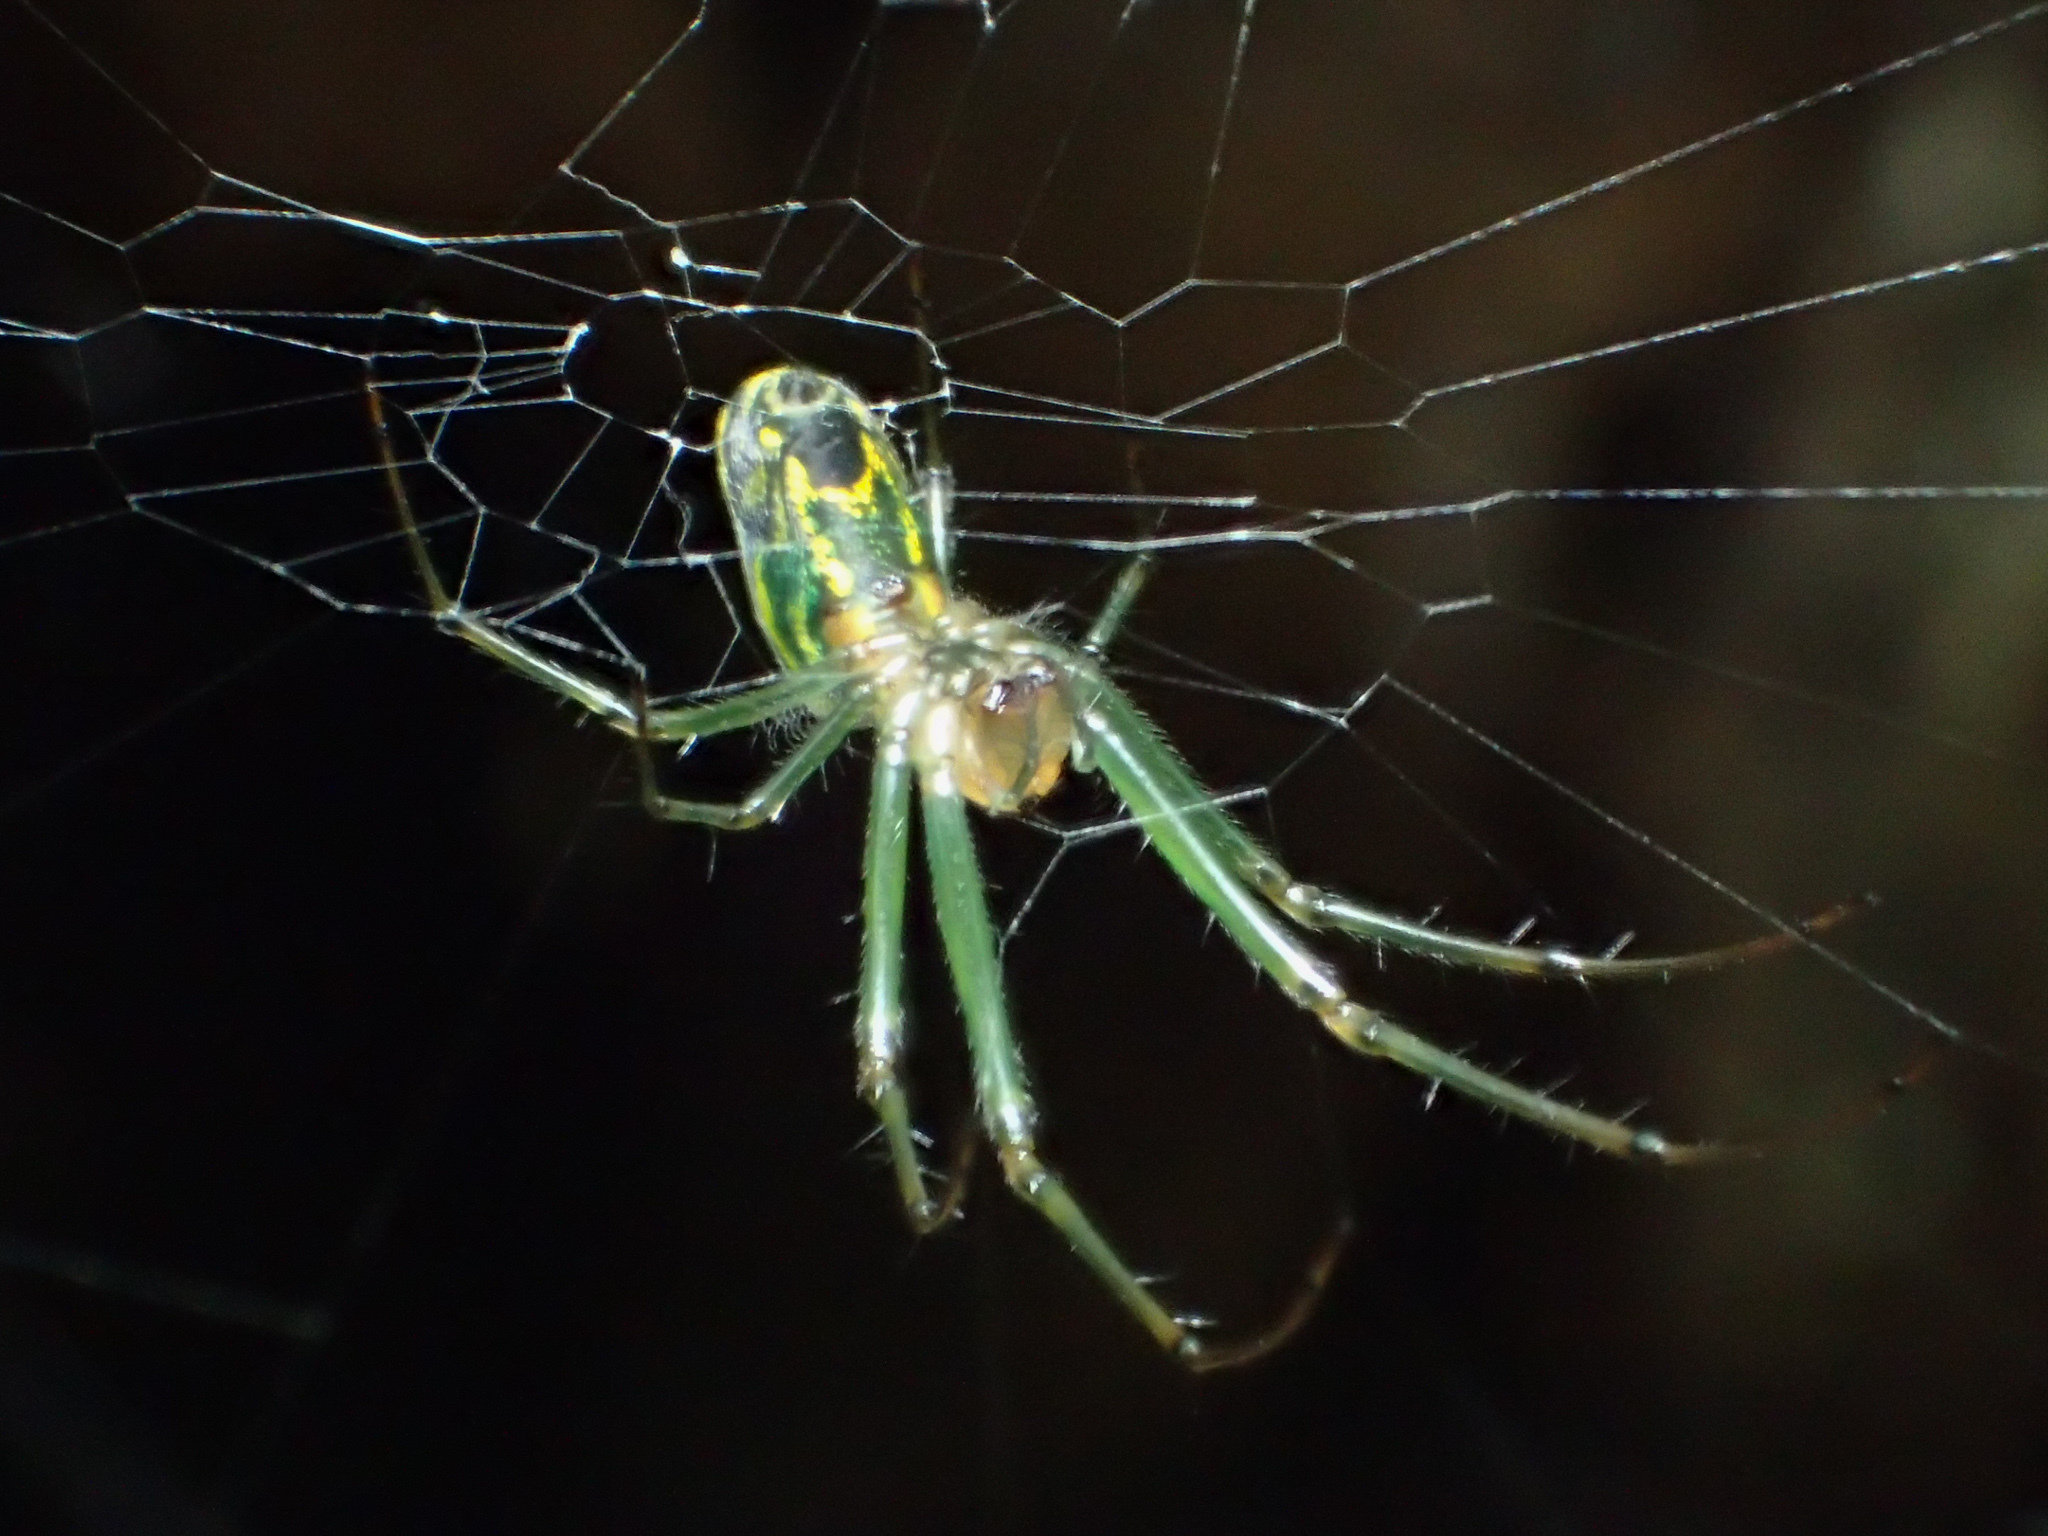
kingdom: Animalia
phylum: Arthropoda
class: Arachnida
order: Araneae
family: Tetragnathidae
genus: Leucauge
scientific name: Leucauge venusta
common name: Longjawed orb weavers
